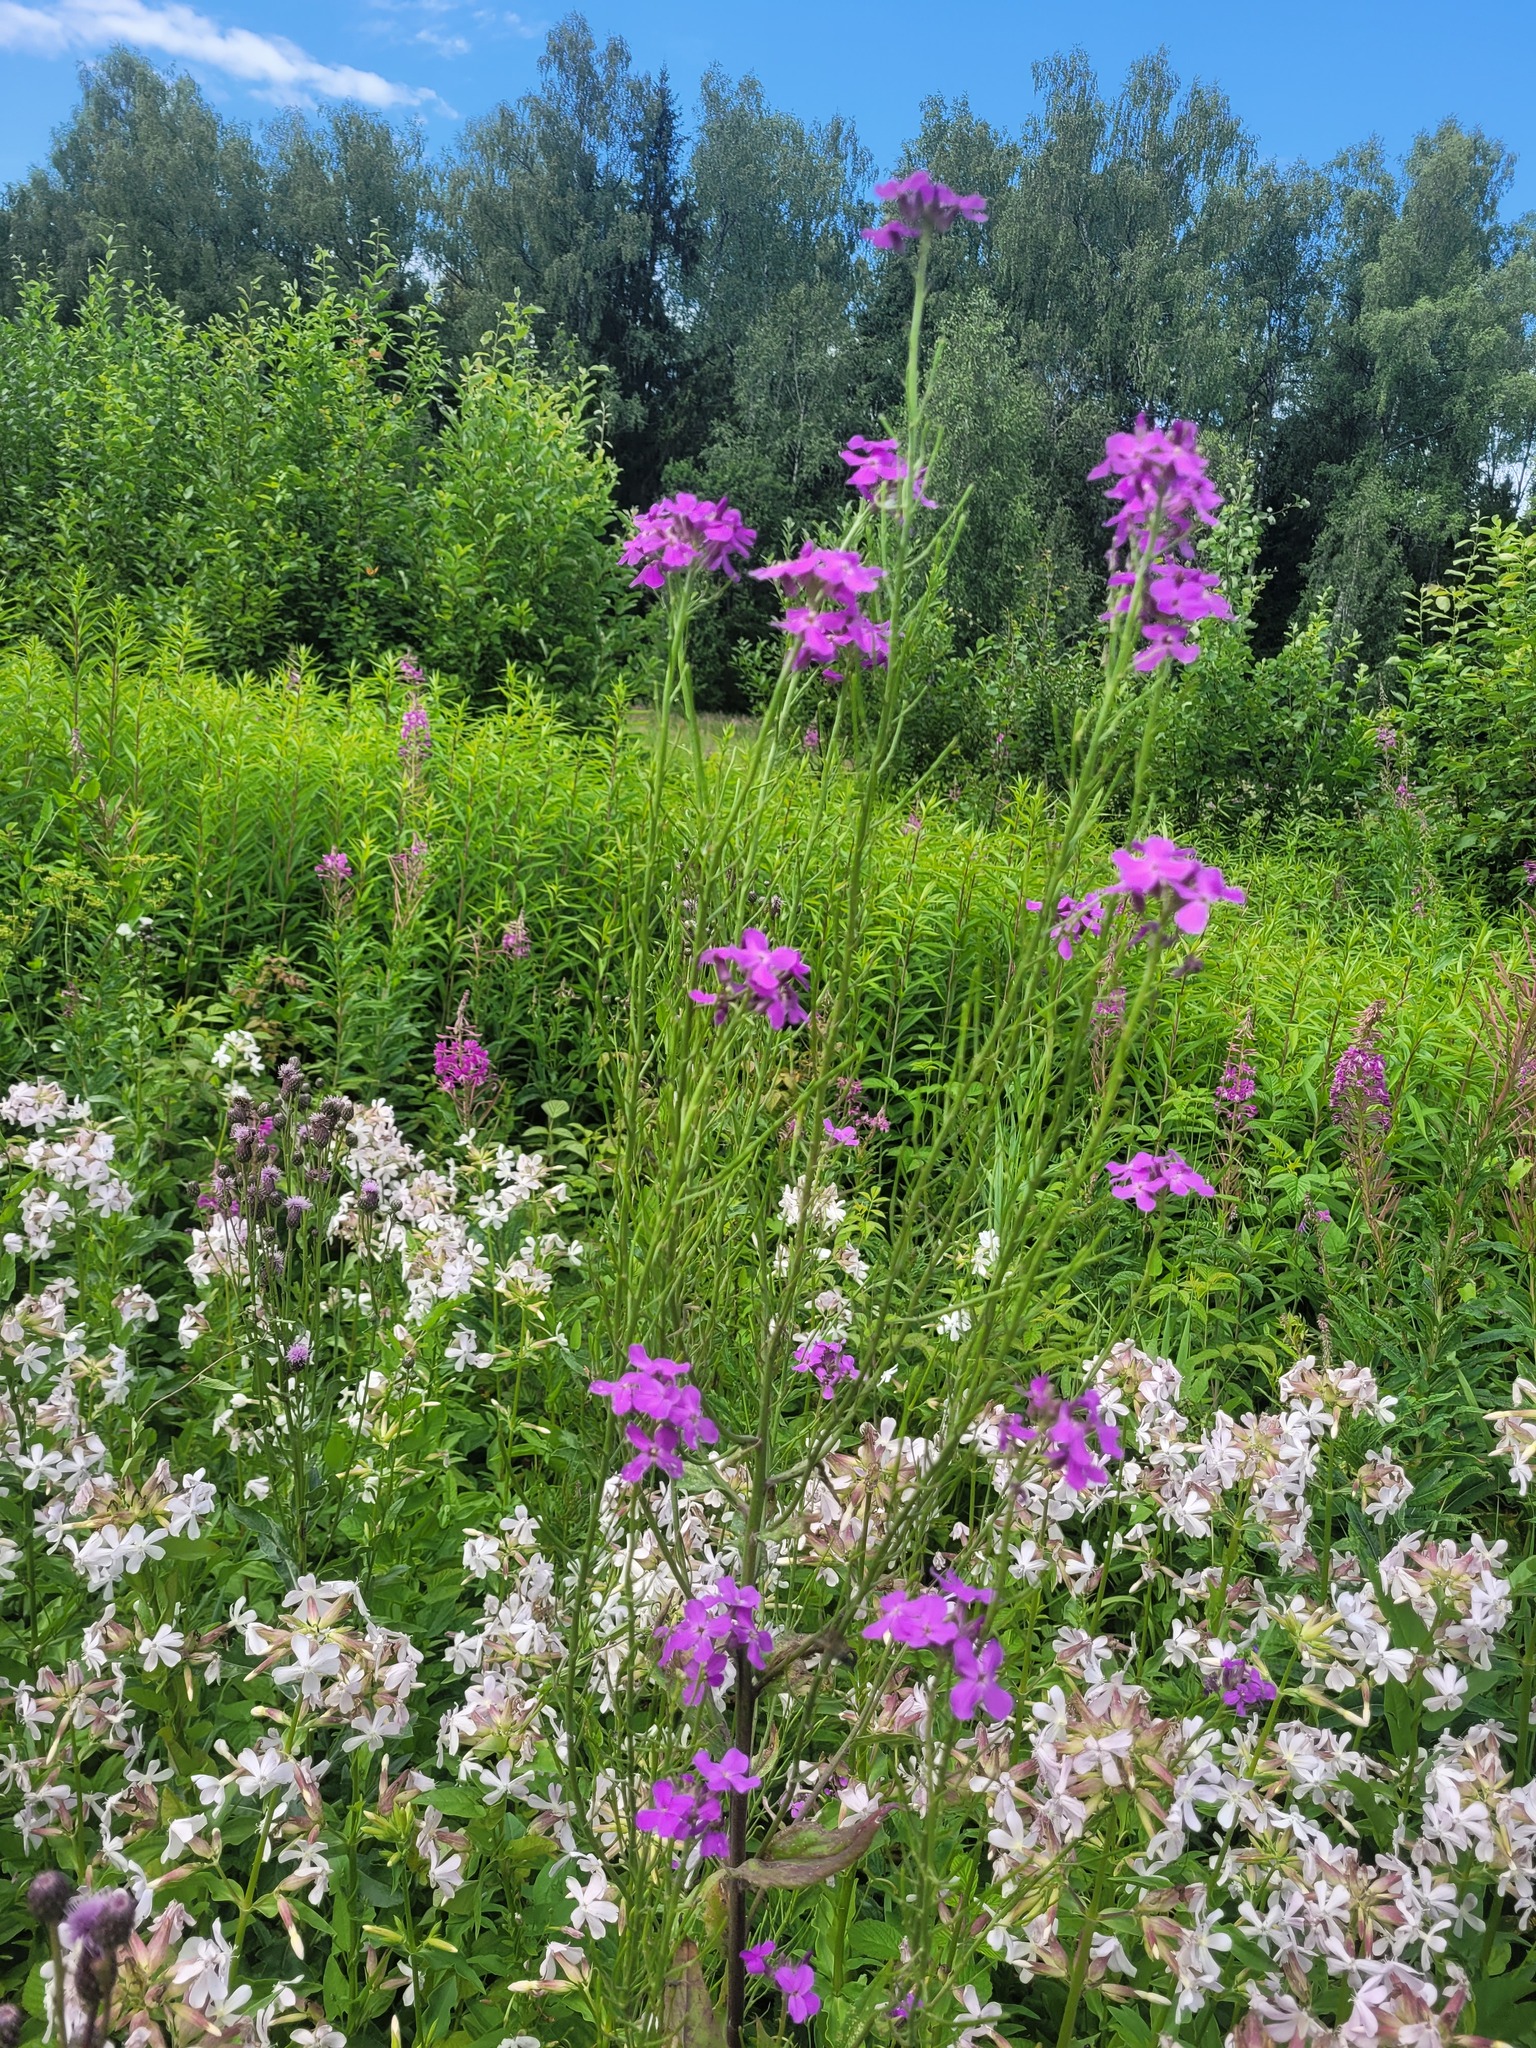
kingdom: Plantae
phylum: Tracheophyta
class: Magnoliopsida
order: Brassicales
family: Brassicaceae
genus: Hesperis
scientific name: Hesperis pycnotricha
